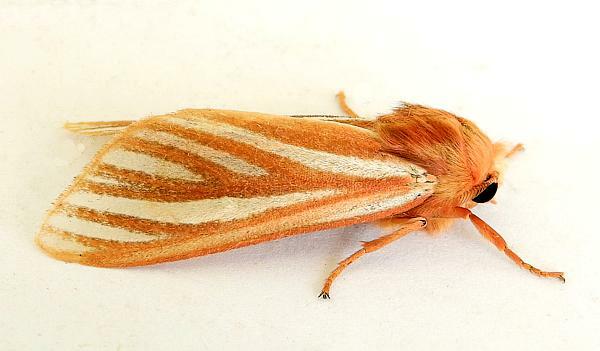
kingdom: Animalia
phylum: Arthropoda
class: Insecta
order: Lepidoptera
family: Erebidae
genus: Hemihyalea
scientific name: Hemihyalea ambigua
